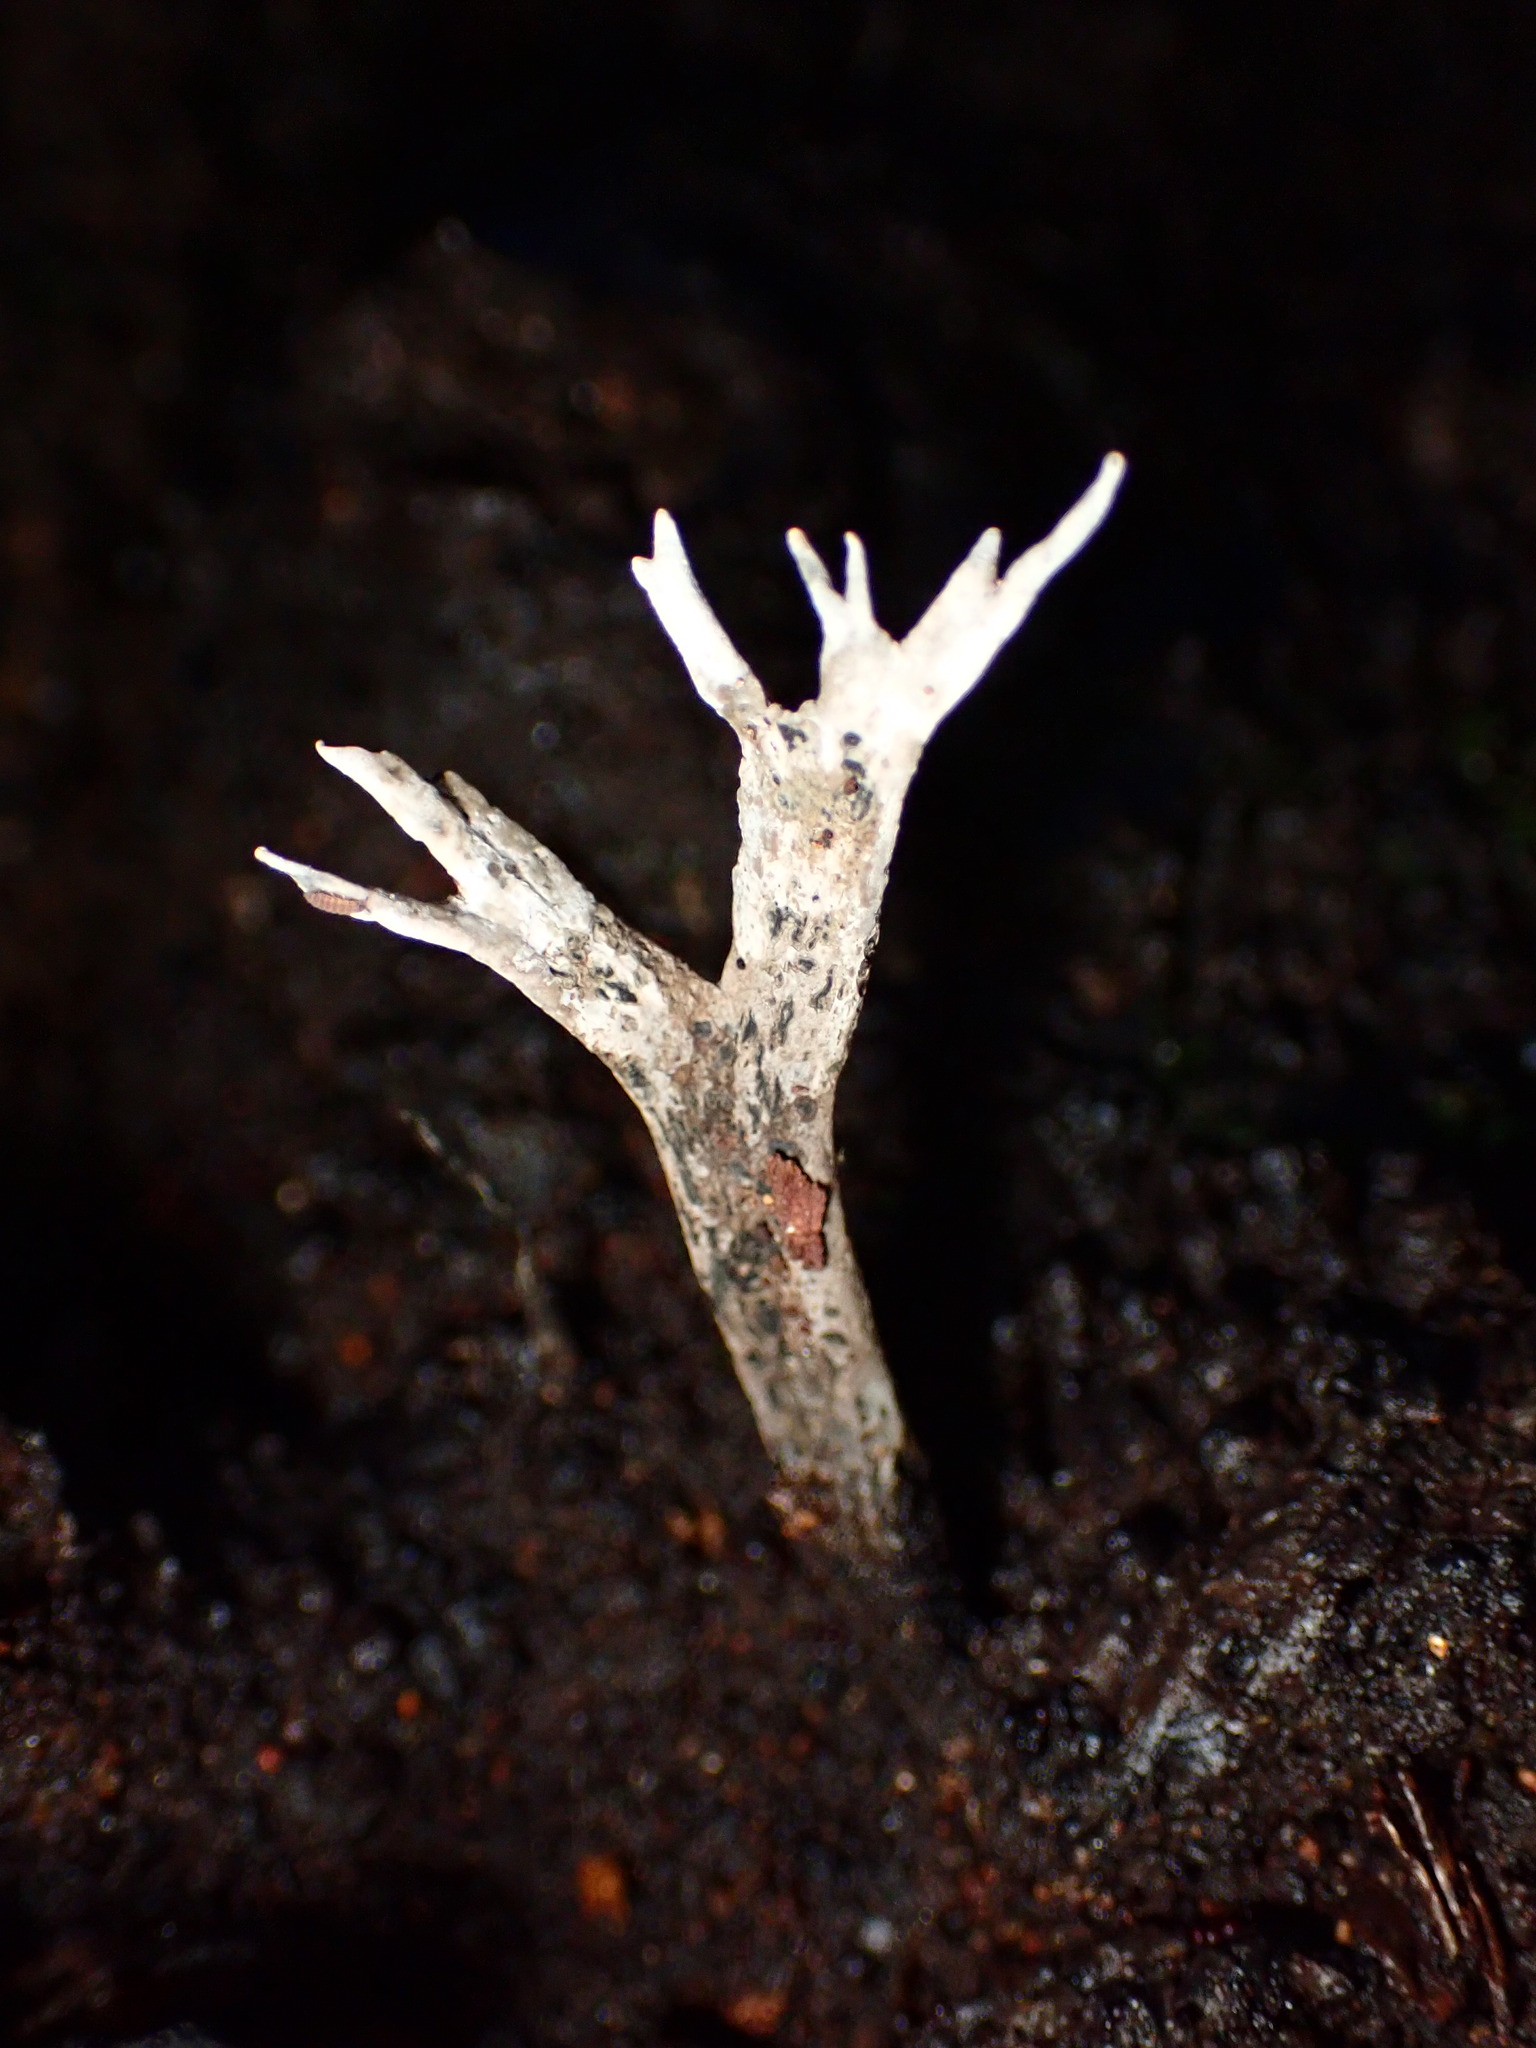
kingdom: Fungi
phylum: Ascomycota
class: Sordariomycetes
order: Xylariales
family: Xylariaceae
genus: Xylaria
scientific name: Xylaria hypoxylon
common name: Candle-snuff fungus
